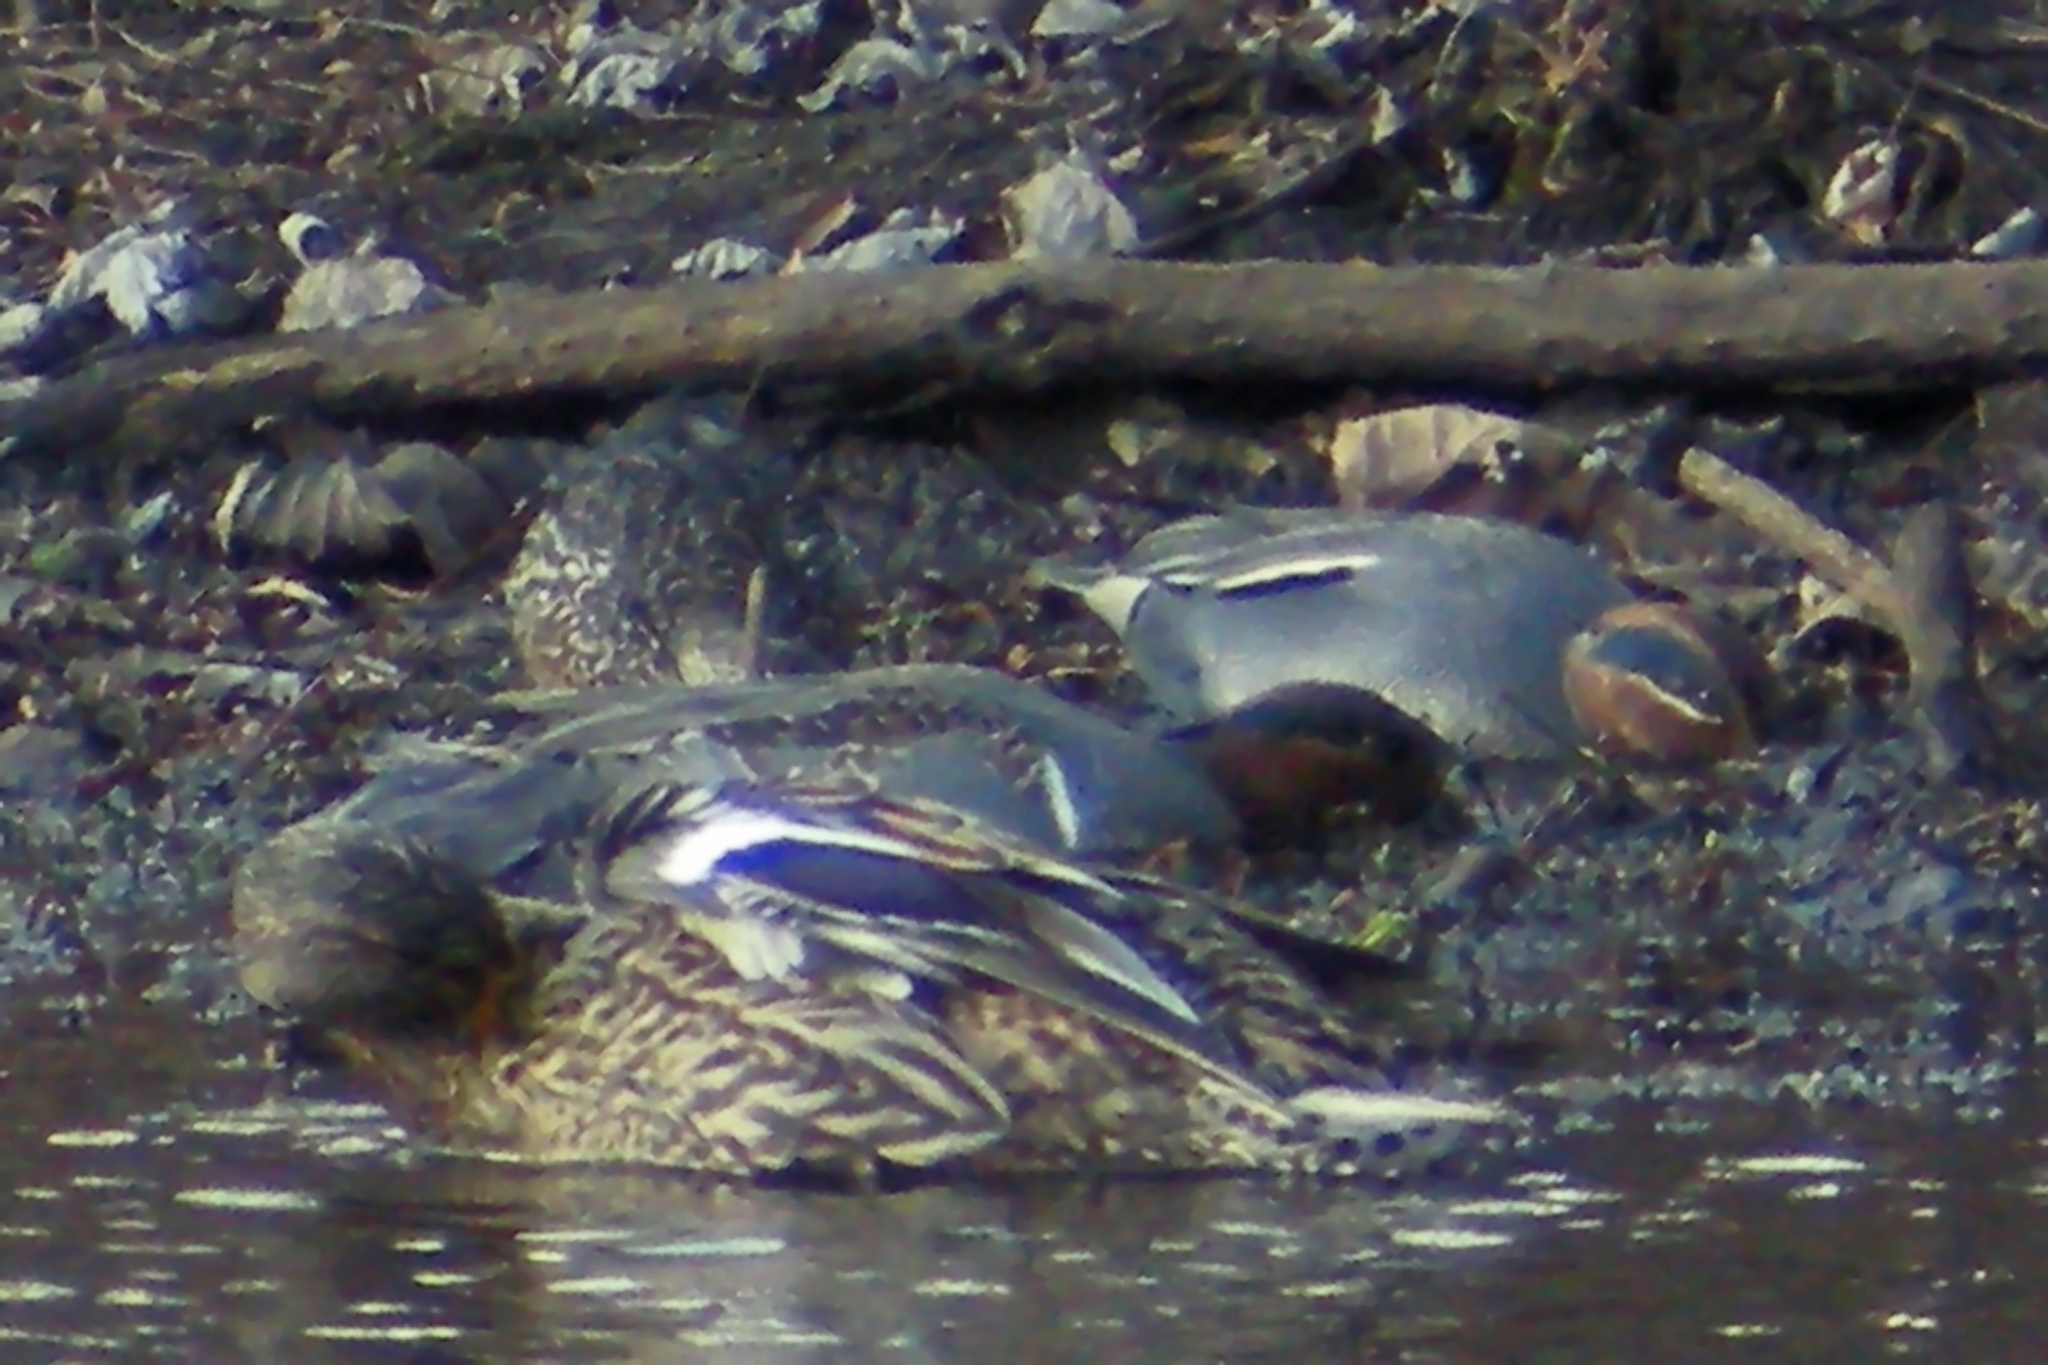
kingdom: Animalia
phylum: Chordata
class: Aves
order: Anseriformes
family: Anatidae
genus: Anas
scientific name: Anas carolinensis
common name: Green-winged teal
